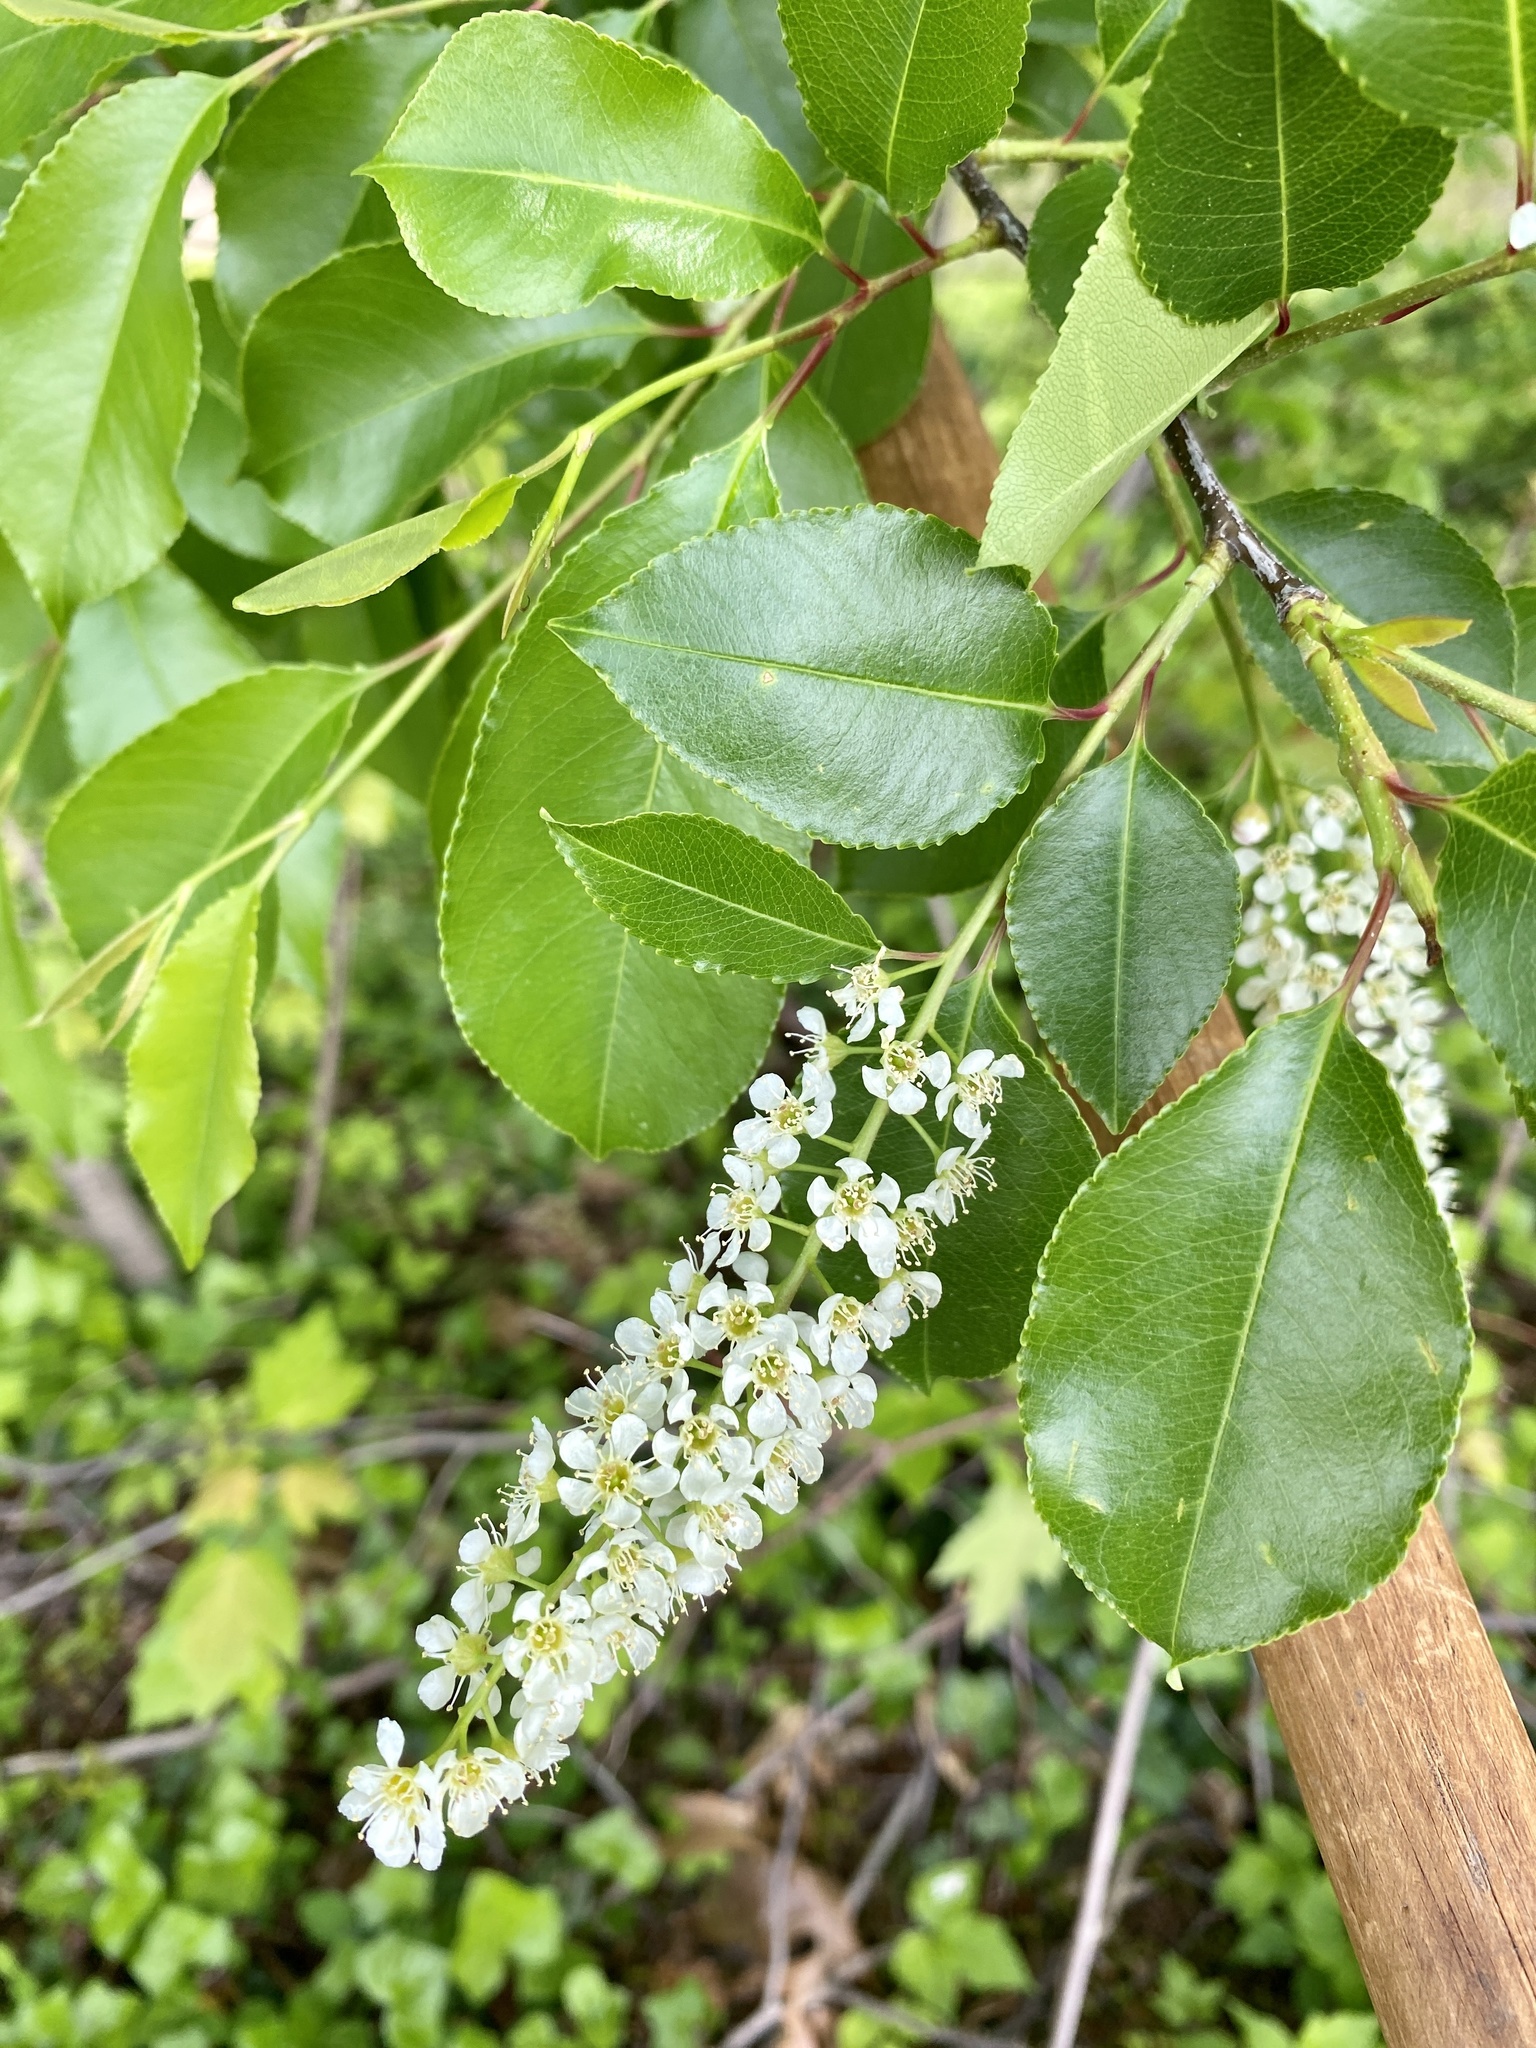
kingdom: Plantae
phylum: Tracheophyta
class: Magnoliopsida
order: Rosales
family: Rosaceae
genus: Prunus
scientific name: Prunus serotina
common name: Black cherry
